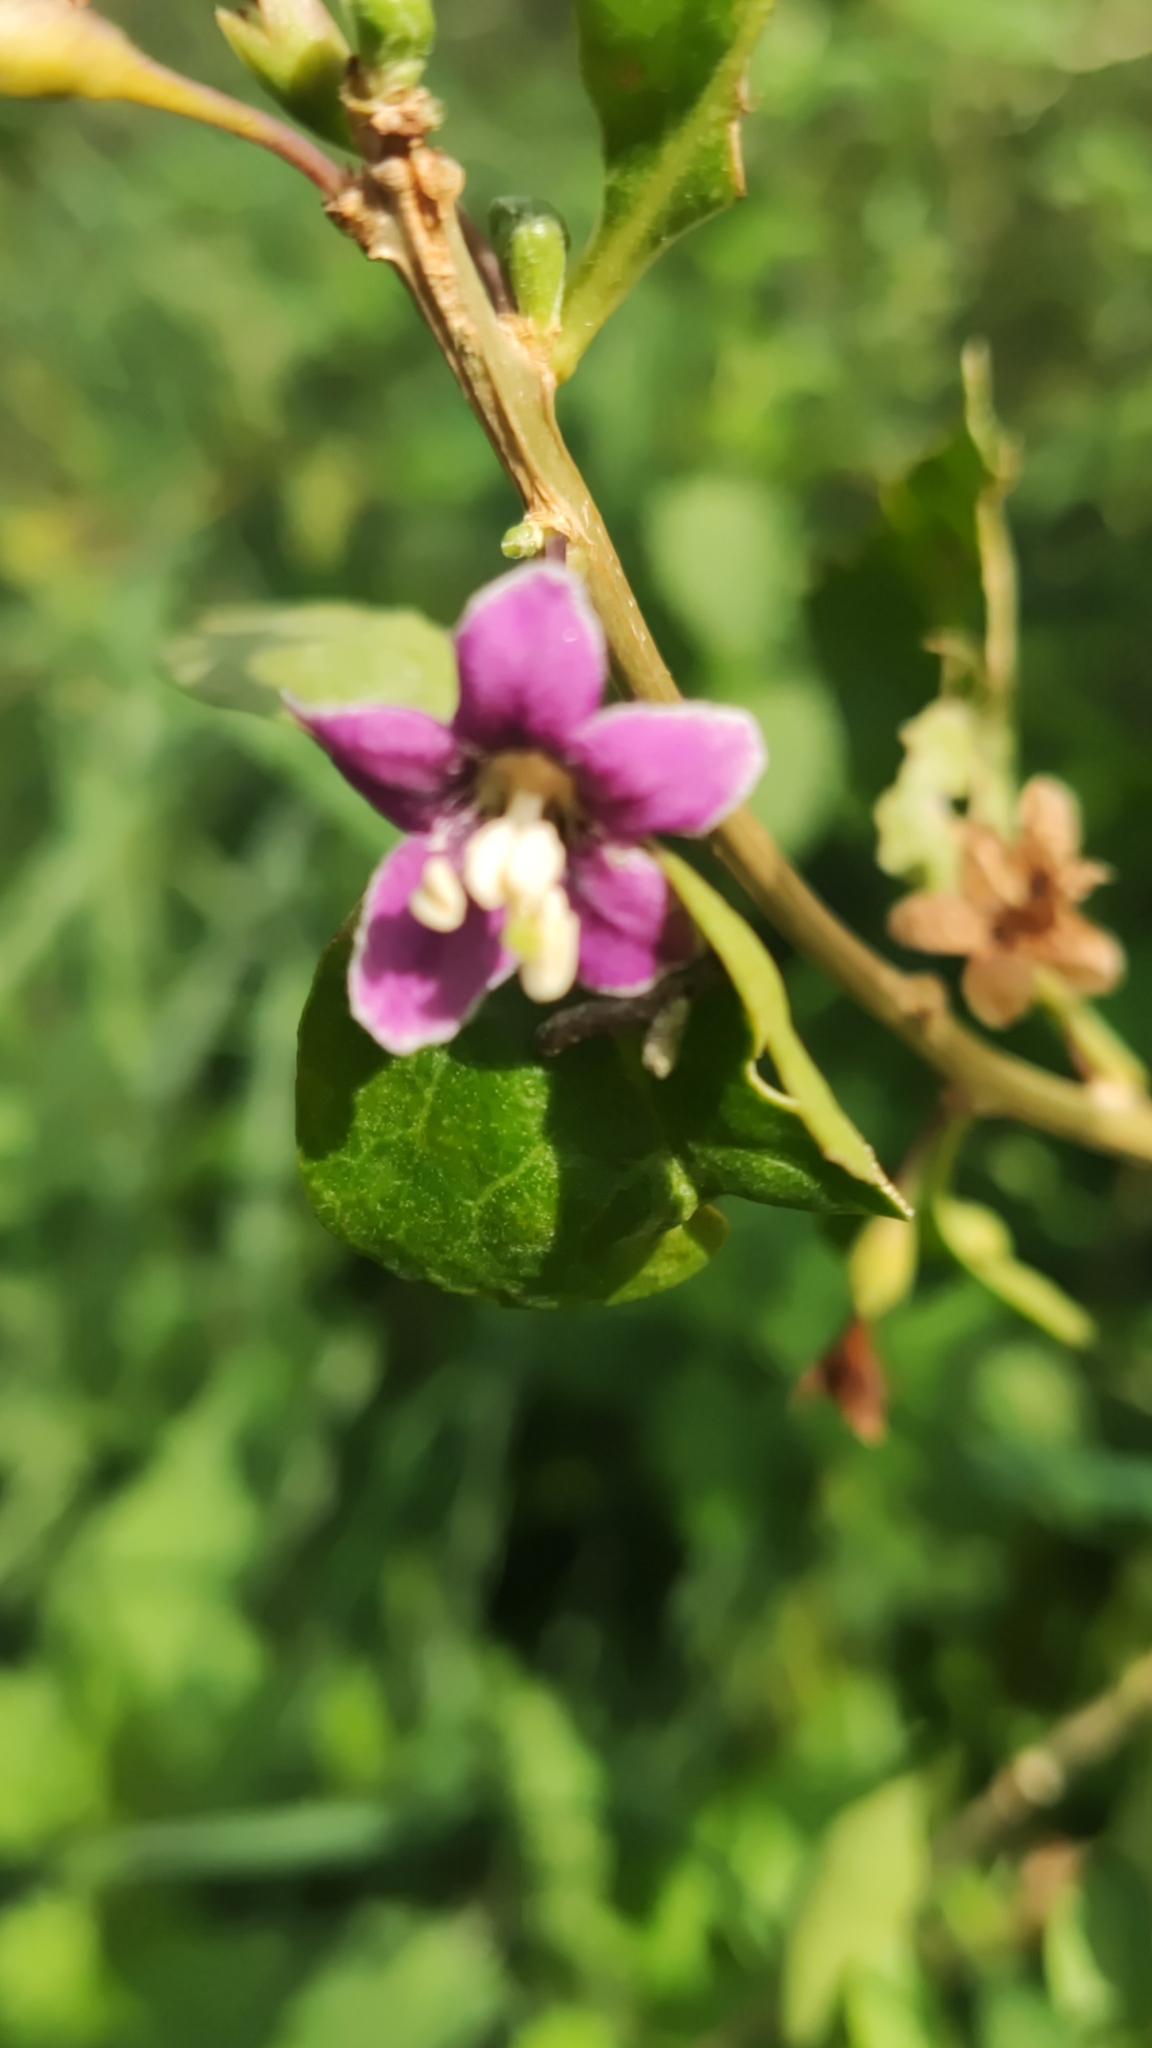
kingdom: Plantae
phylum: Tracheophyta
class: Magnoliopsida
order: Solanales
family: Solanaceae
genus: Lycium
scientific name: Lycium barbarum
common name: Duke of argyll's teaplant
